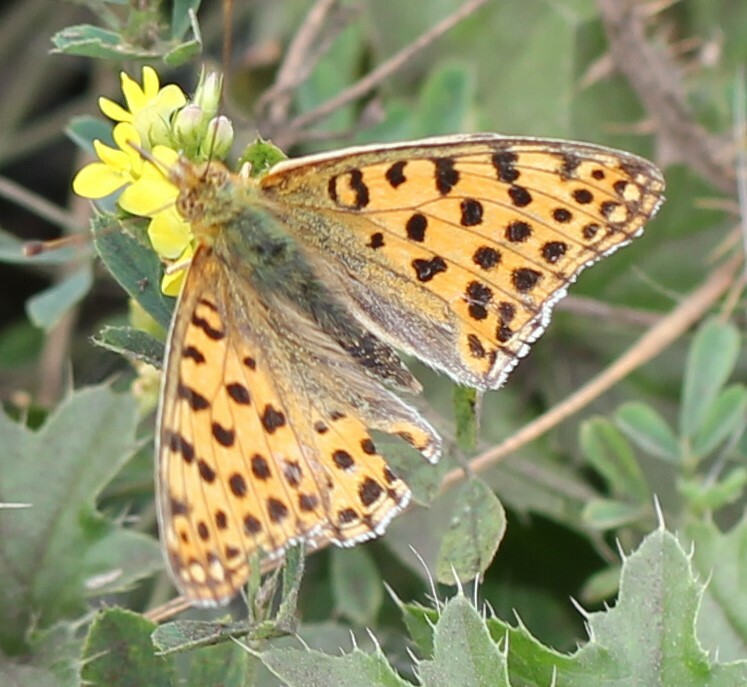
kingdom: Animalia
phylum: Arthropoda
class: Insecta
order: Lepidoptera
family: Nymphalidae
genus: Issoria
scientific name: Issoria lathonia
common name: Queen of spain fritillary
